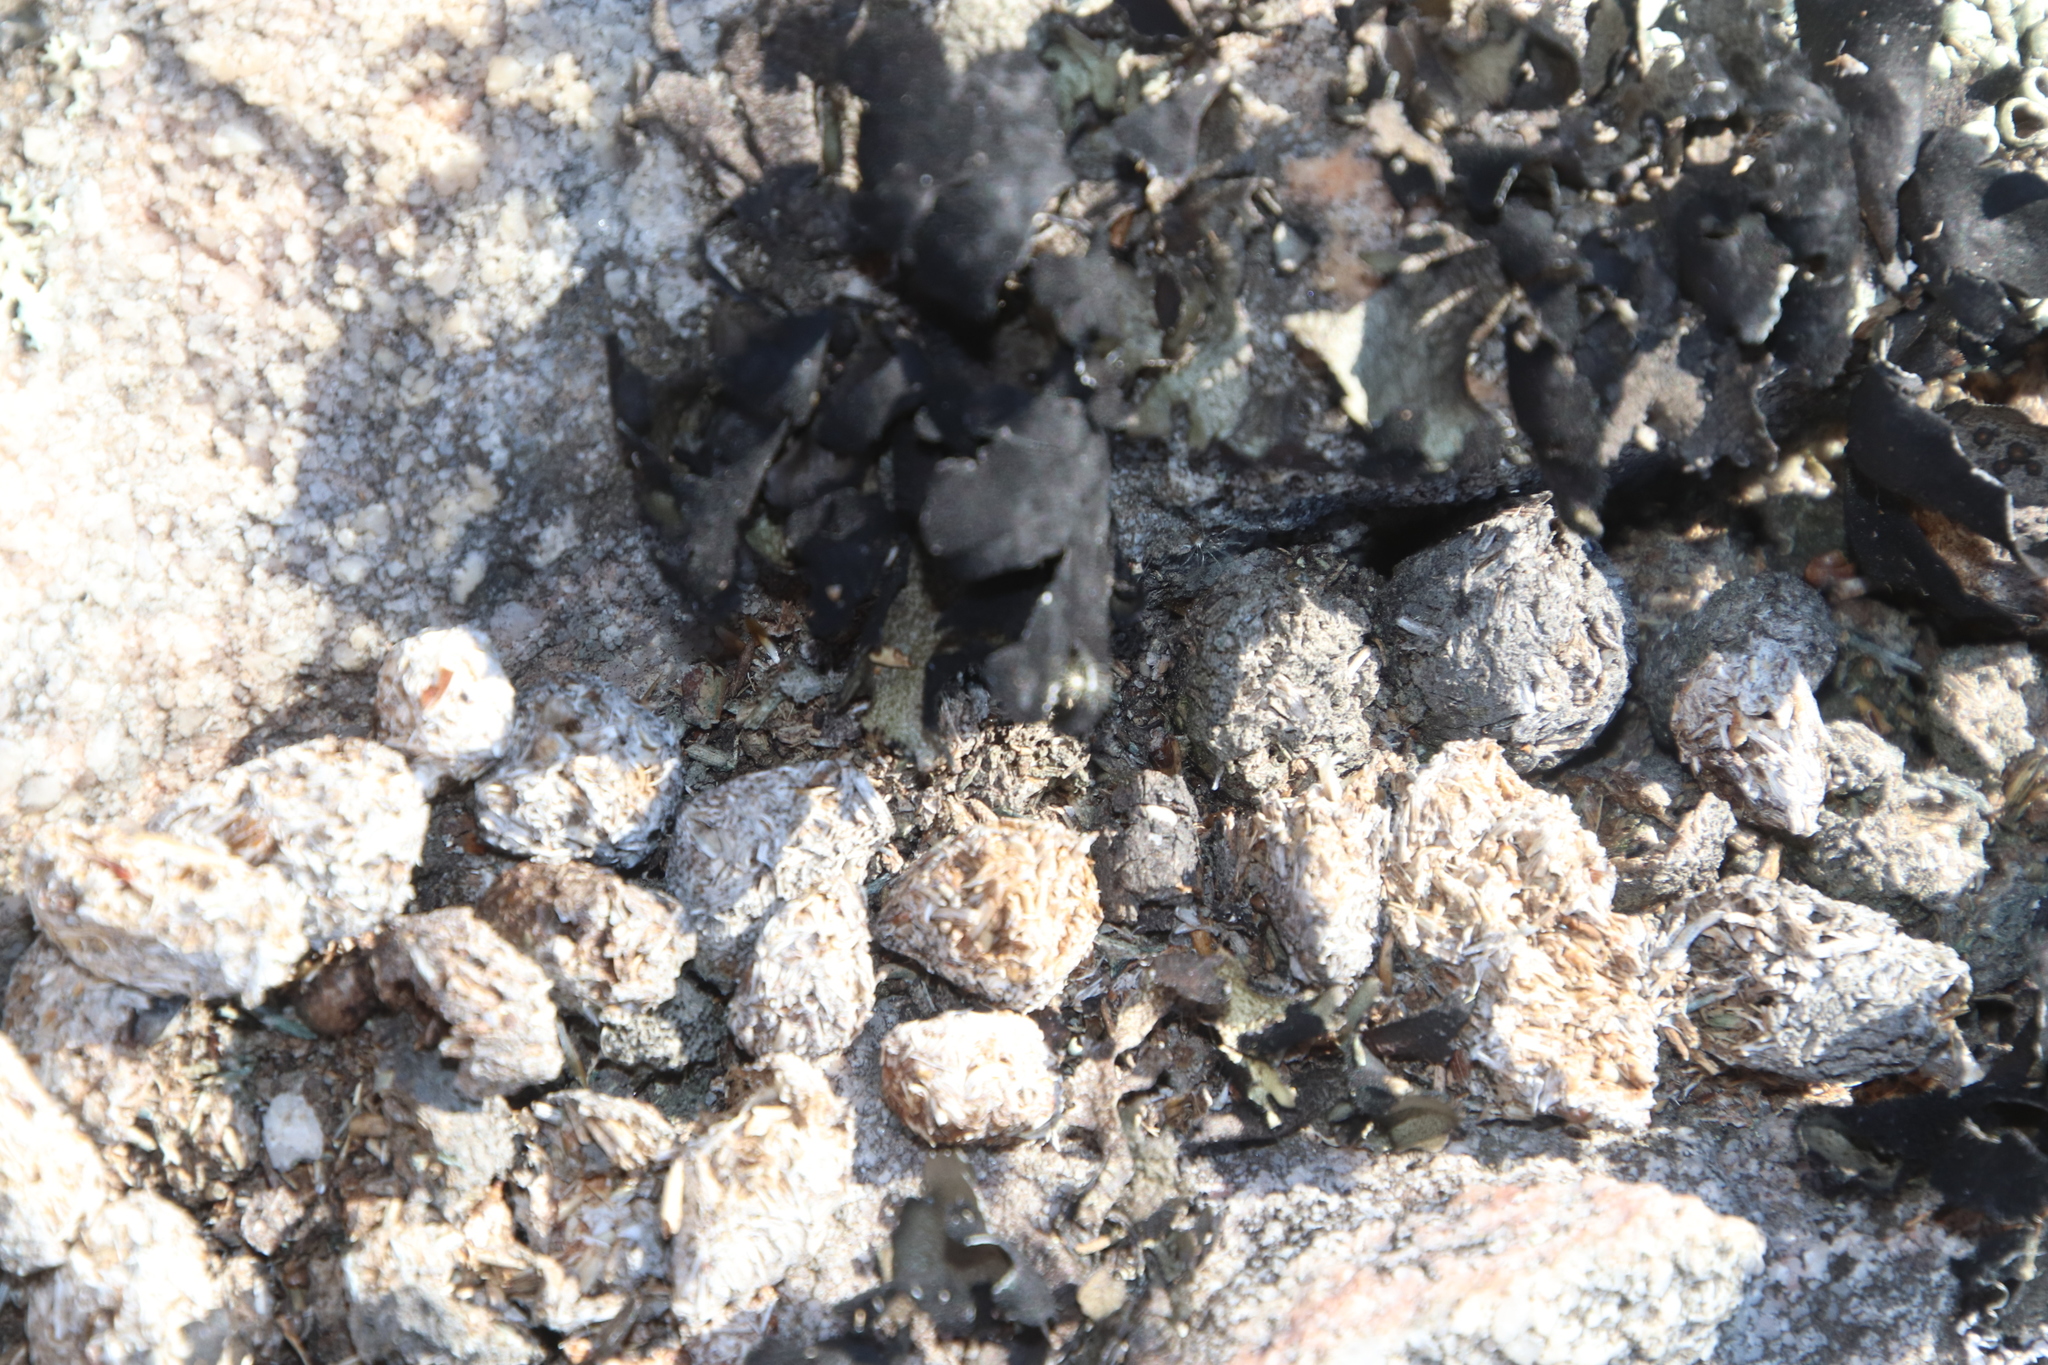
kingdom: Animalia
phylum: Chordata
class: Mammalia
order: Lagomorpha
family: Leporidae
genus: Pronolagus
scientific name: Pronolagus saundersiae
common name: Hewitt's red rock hare
